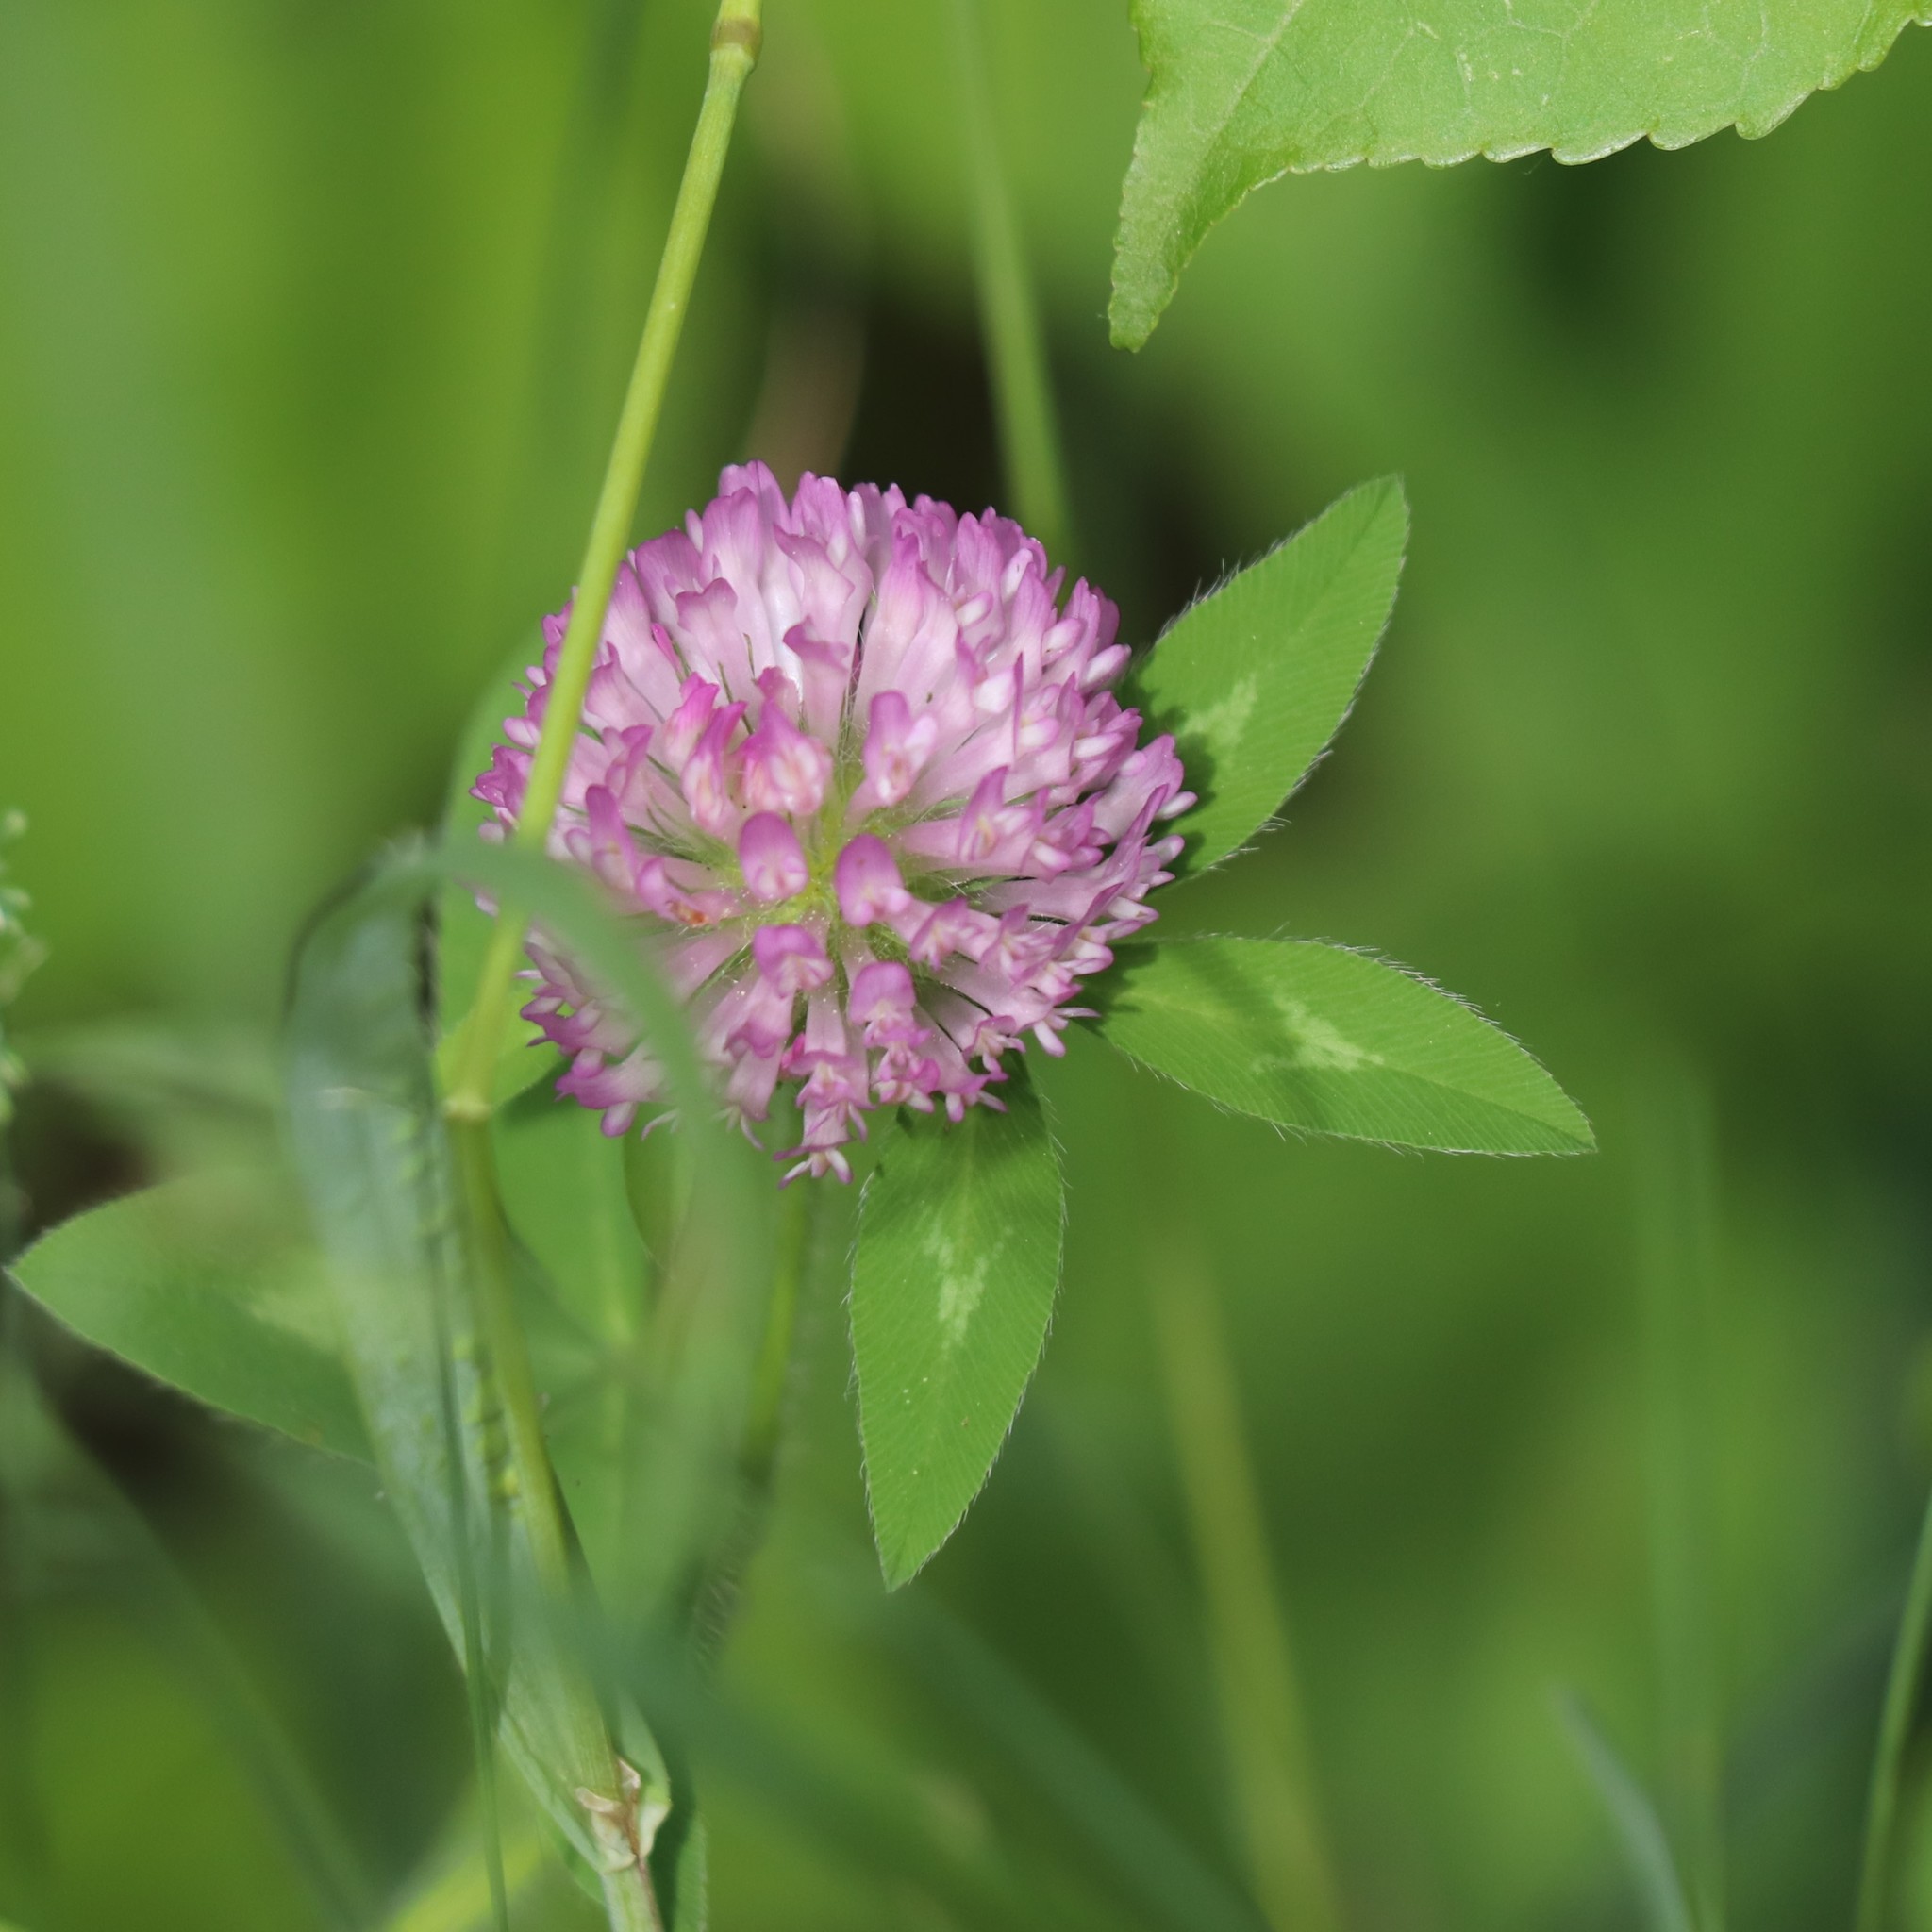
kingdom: Plantae
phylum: Tracheophyta
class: Magnoliopsida
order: Fabales
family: Fabaceae
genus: Trifolium
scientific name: Trifolium pratense
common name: Red clover
